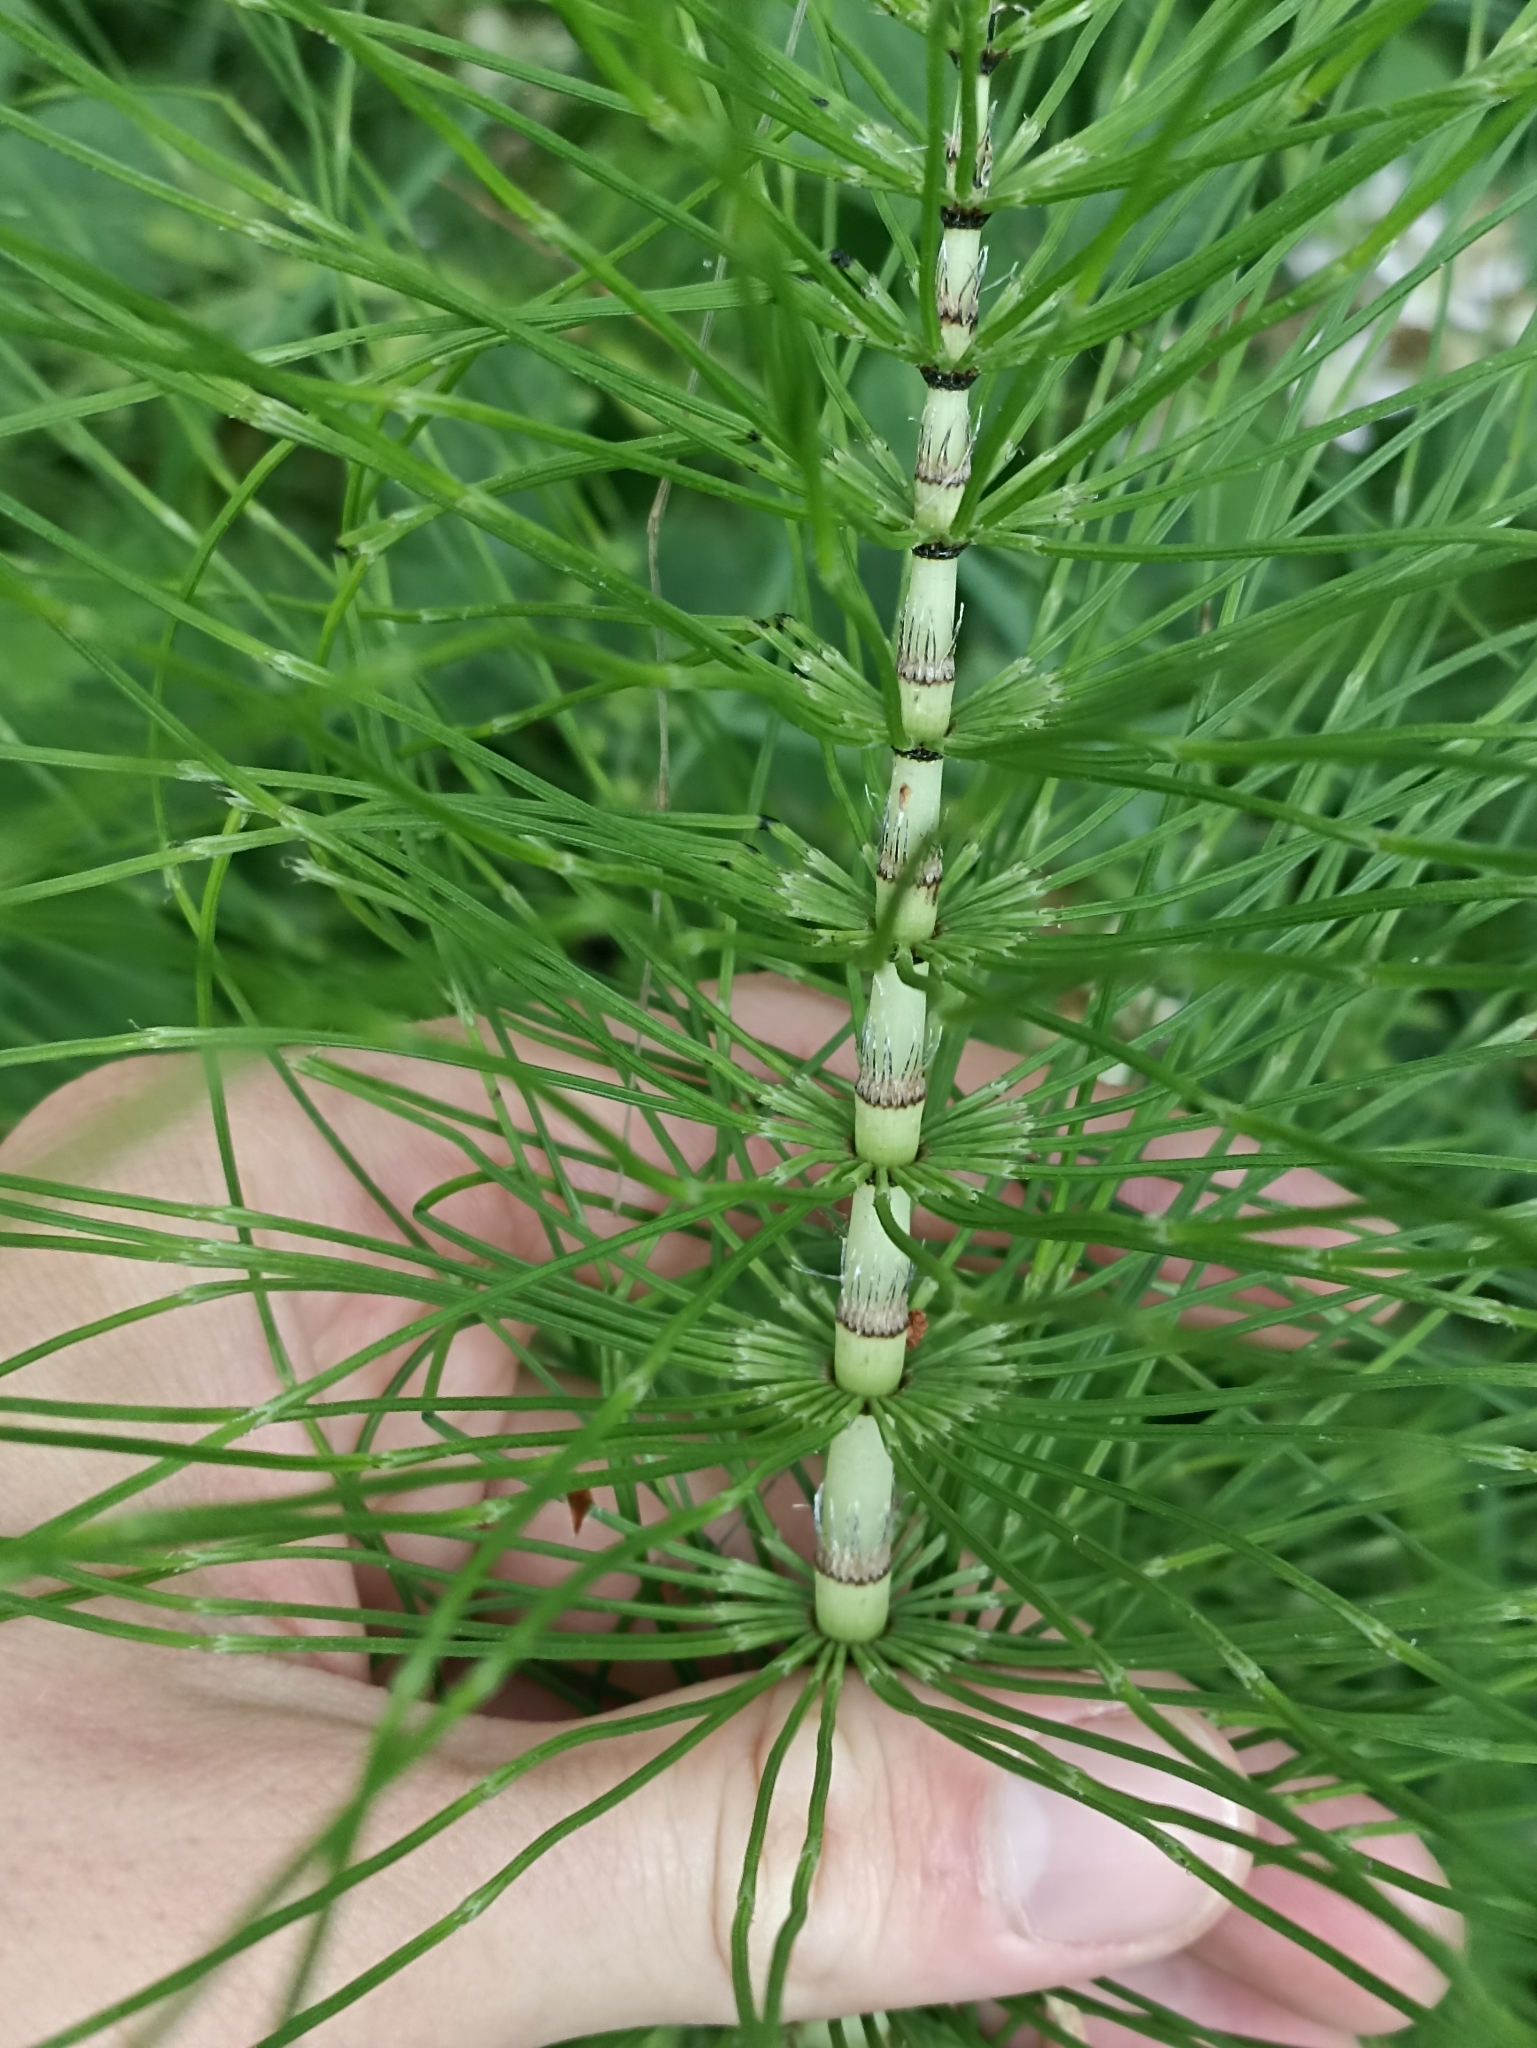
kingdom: Plantae
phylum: Tracheophyta
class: Polypodiopsida
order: Equisetales
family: Equisetaceae
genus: Equisetum
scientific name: Equisetum telmateia
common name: Great horsetail
